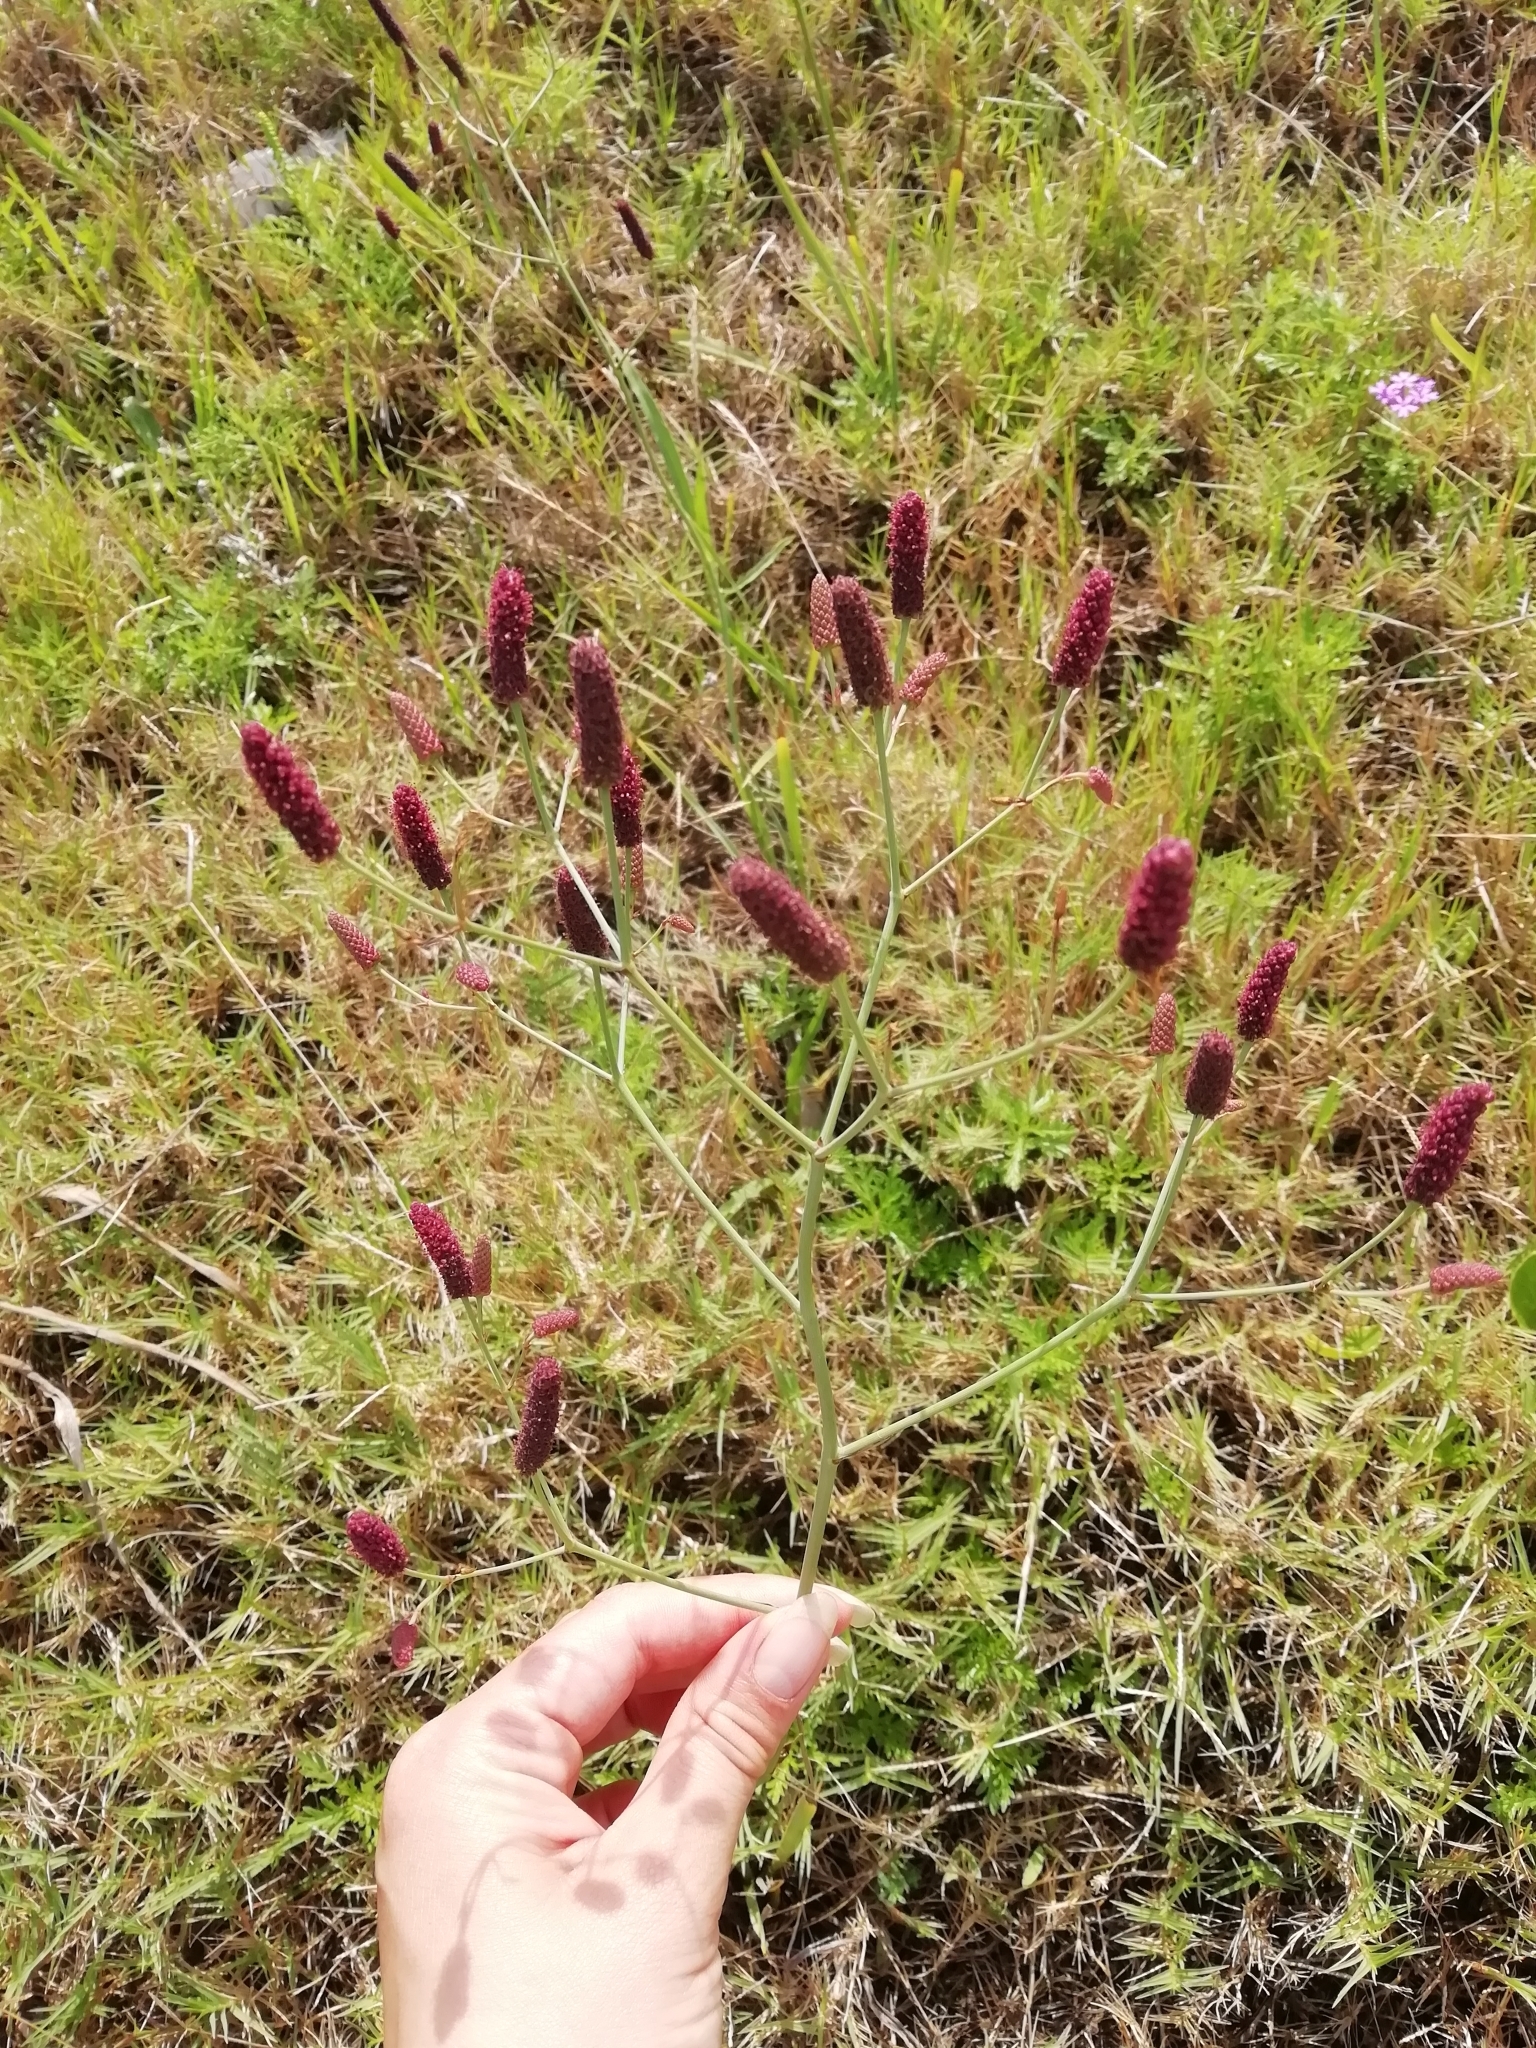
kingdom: Plantae
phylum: Tracheophyta
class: Magnoliopsida
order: Apiales
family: Apiaceae
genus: Eryngium
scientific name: Eryngium ebracteatum
